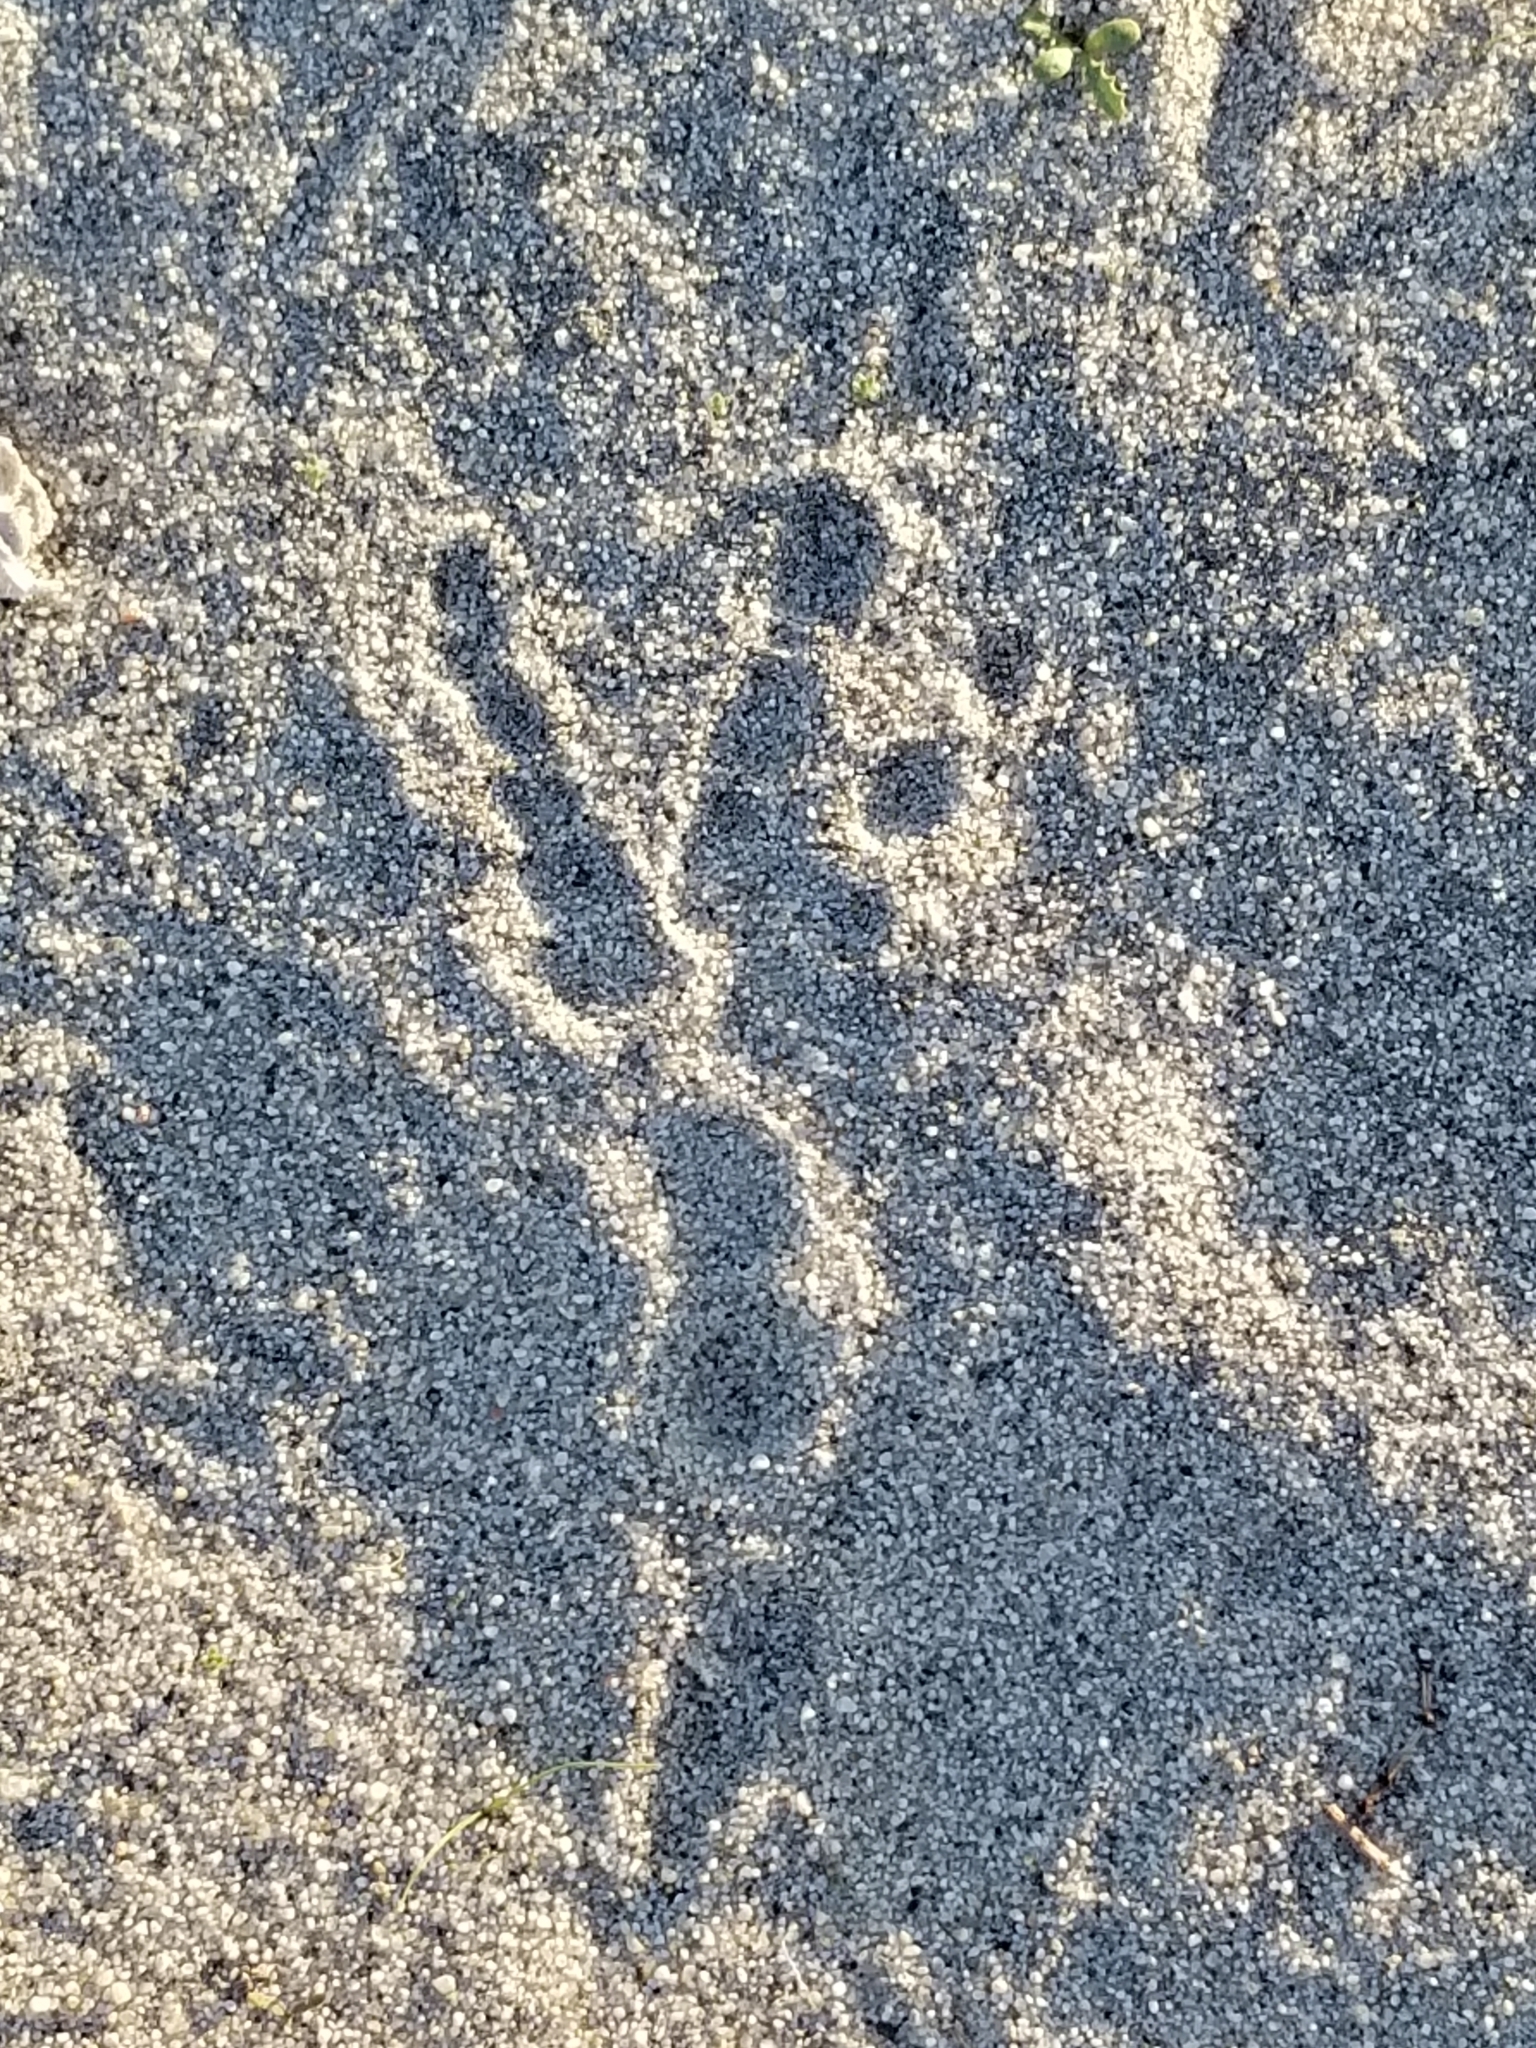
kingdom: Animalia
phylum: Chordata
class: Aves
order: Passeriformes
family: Corvidae
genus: Corvus
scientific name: Corvus corax
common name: Common raven
